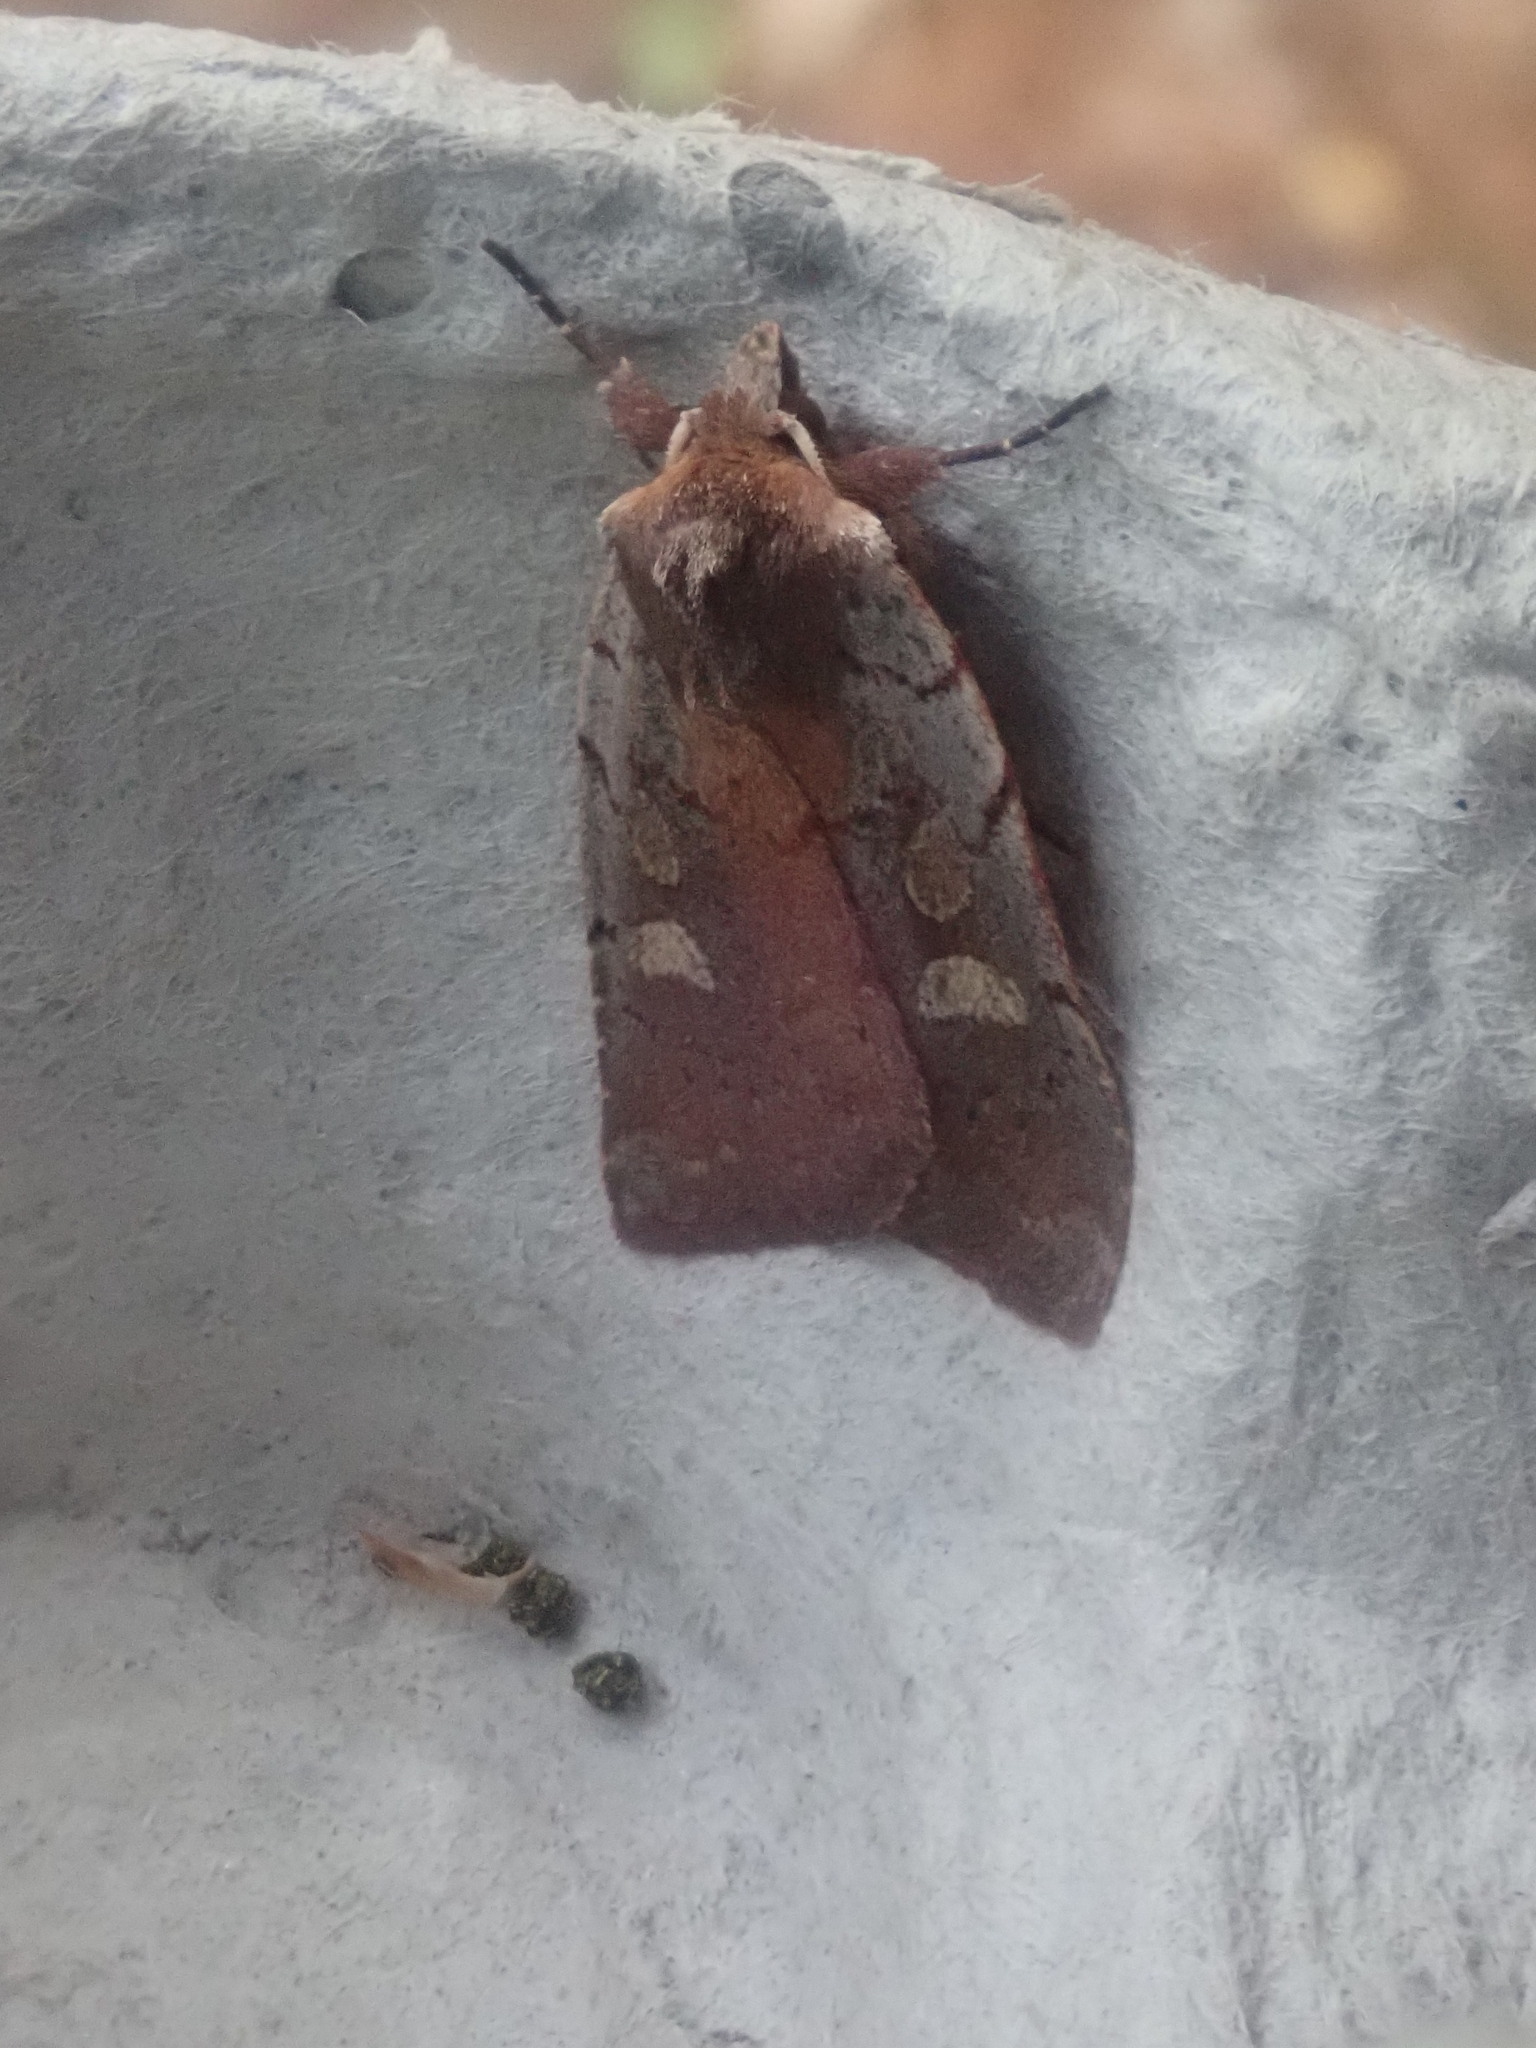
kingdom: Animalia
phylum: Arthropoda
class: Insecta
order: Lepidoptera
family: Noctuidae
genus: Xestia
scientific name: Xestia dilucida
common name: Dull reddish dart
